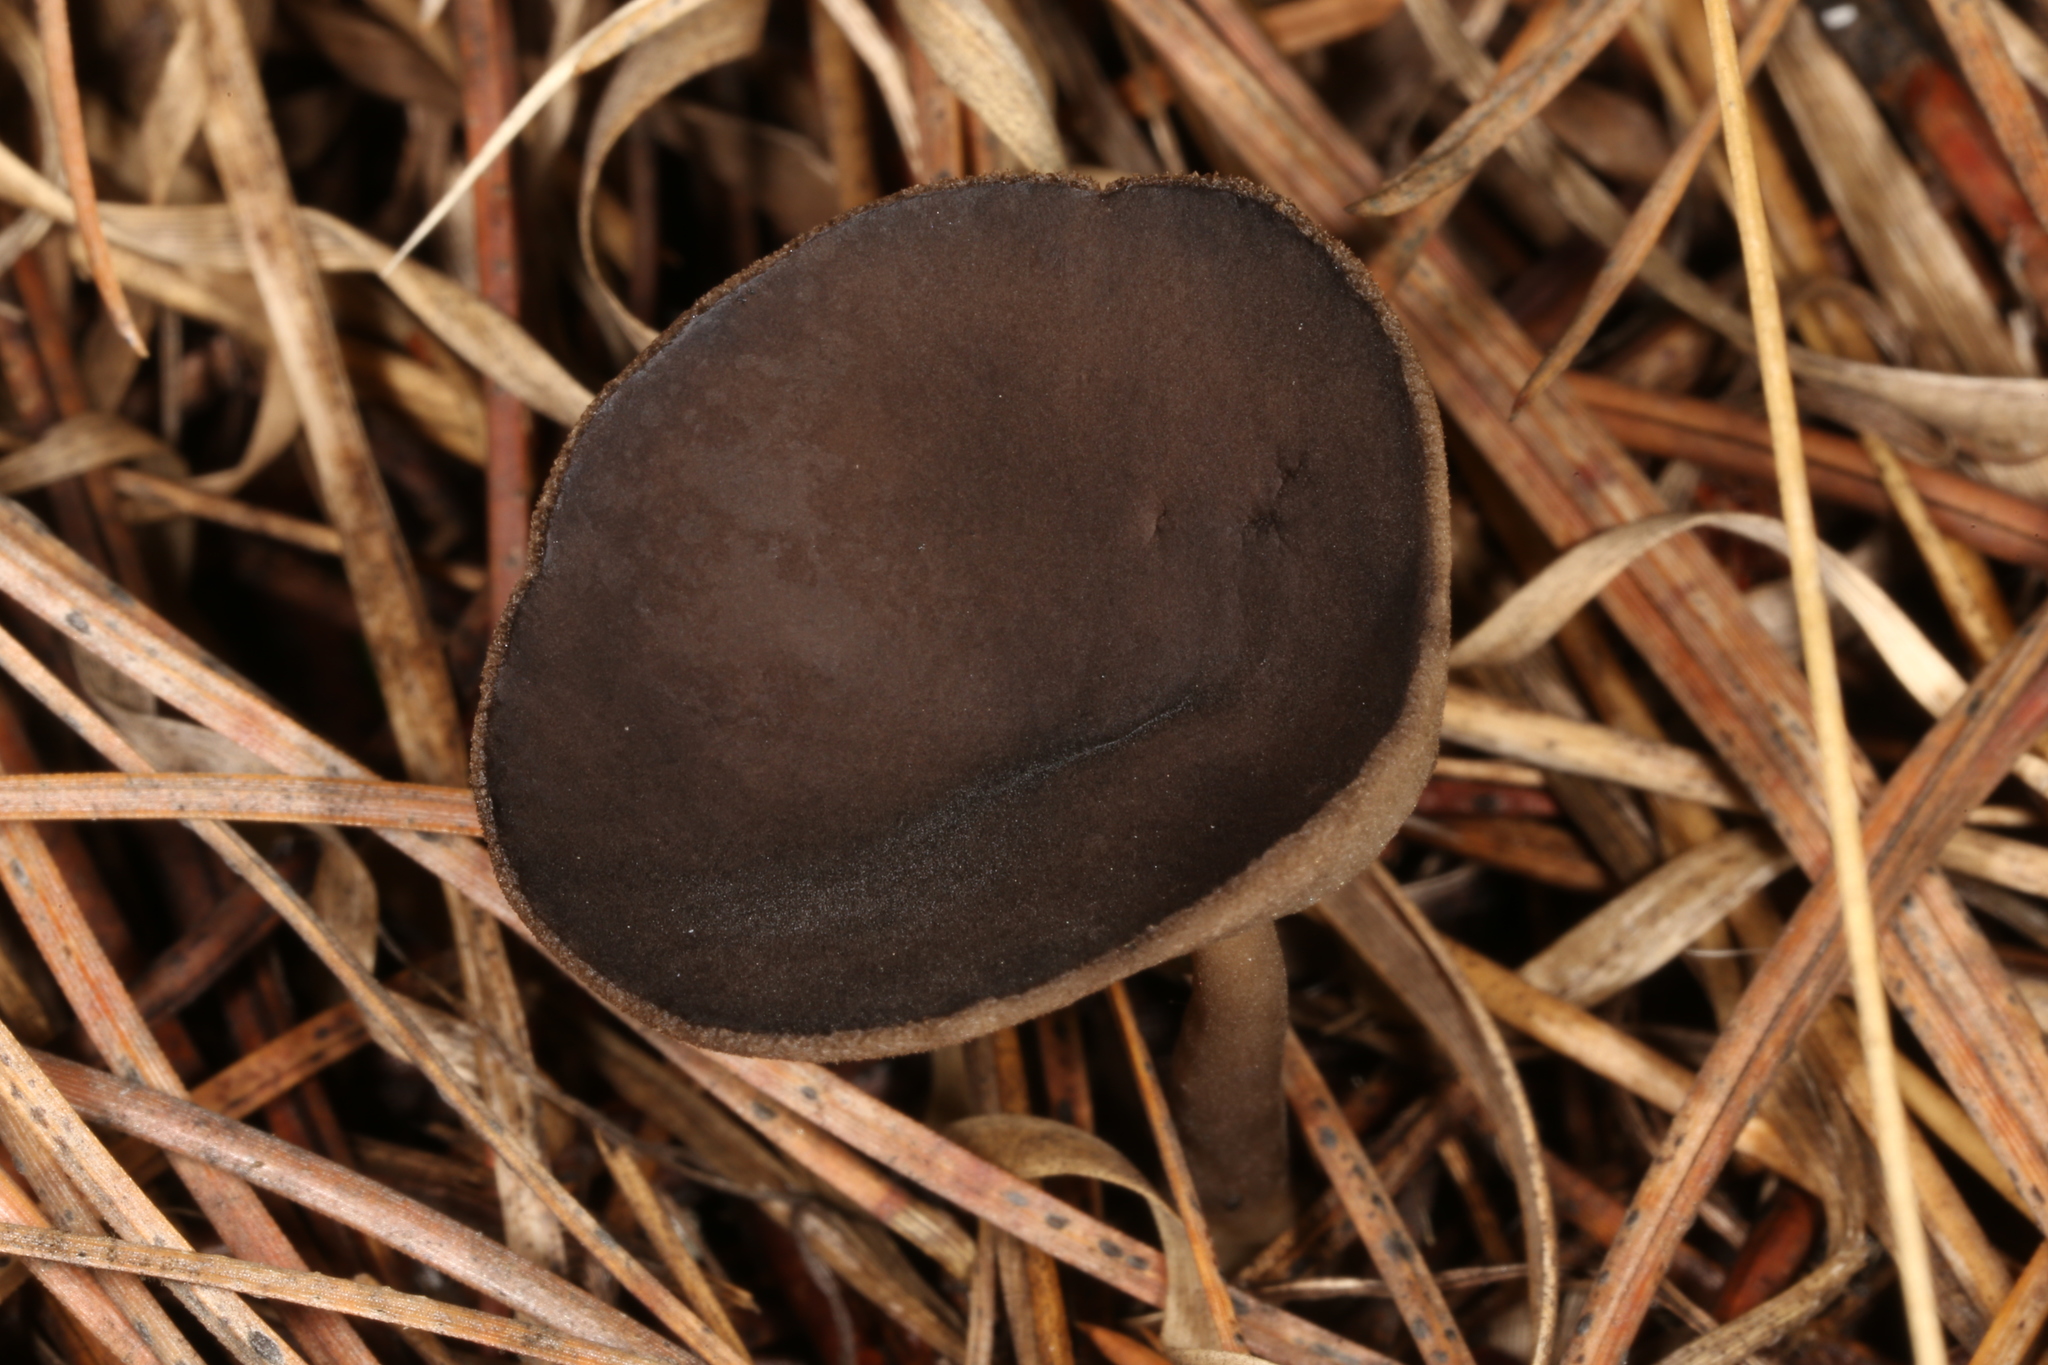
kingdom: Fungi
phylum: Ascomycota
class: Pezizomycetes
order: Pezizales
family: Helvellaceae
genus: Helvella
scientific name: Helvella macropus
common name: Felt saddle
